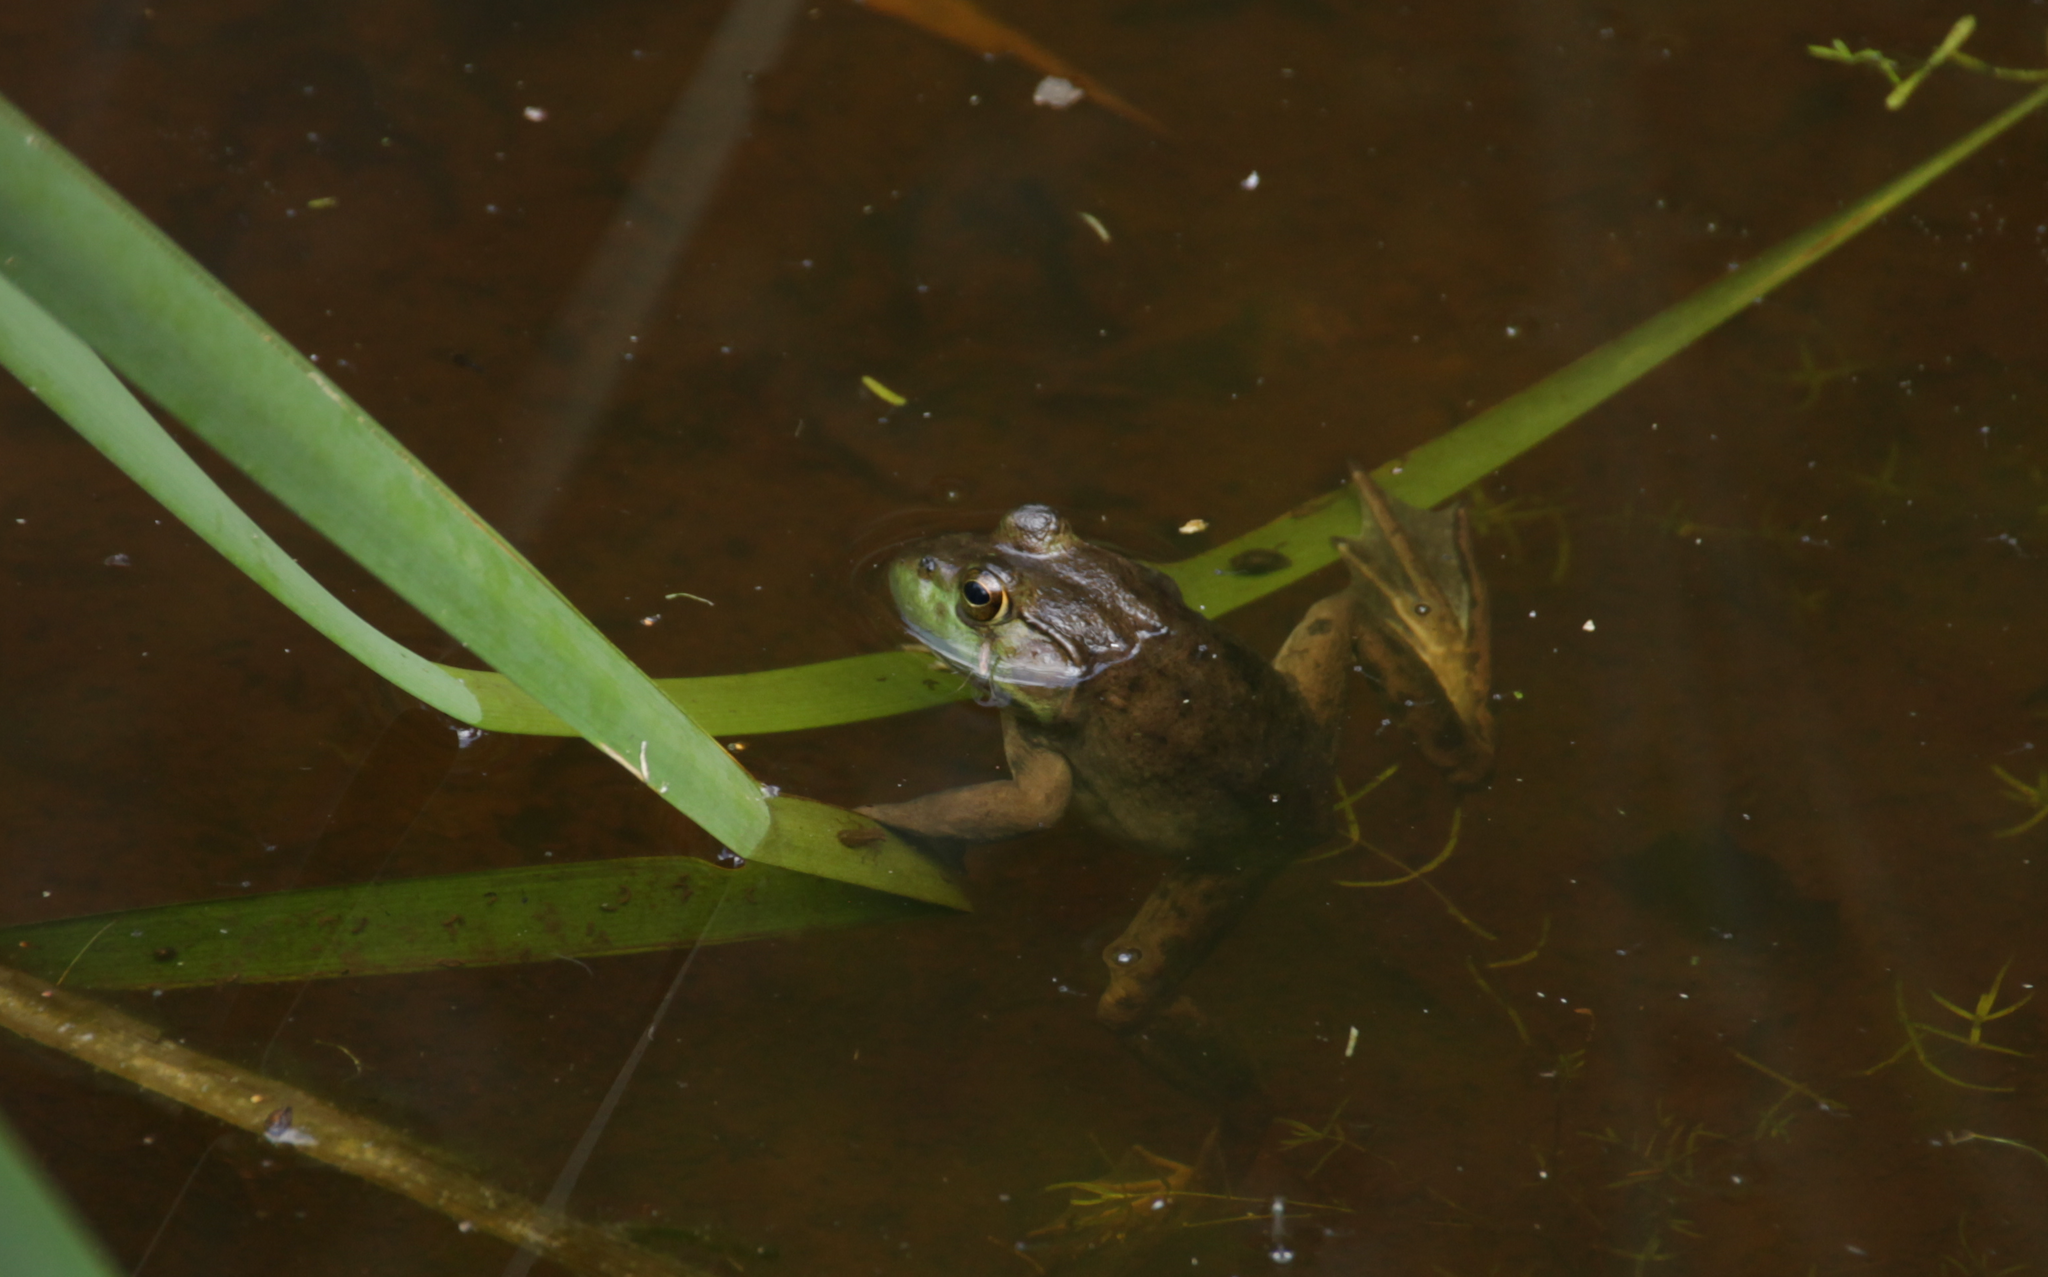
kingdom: Animalia
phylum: Chordata
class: Amphibia
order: Anura
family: Ranidae
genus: Lithobates
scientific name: Lithobates catesbeianus
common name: American bullfrog
